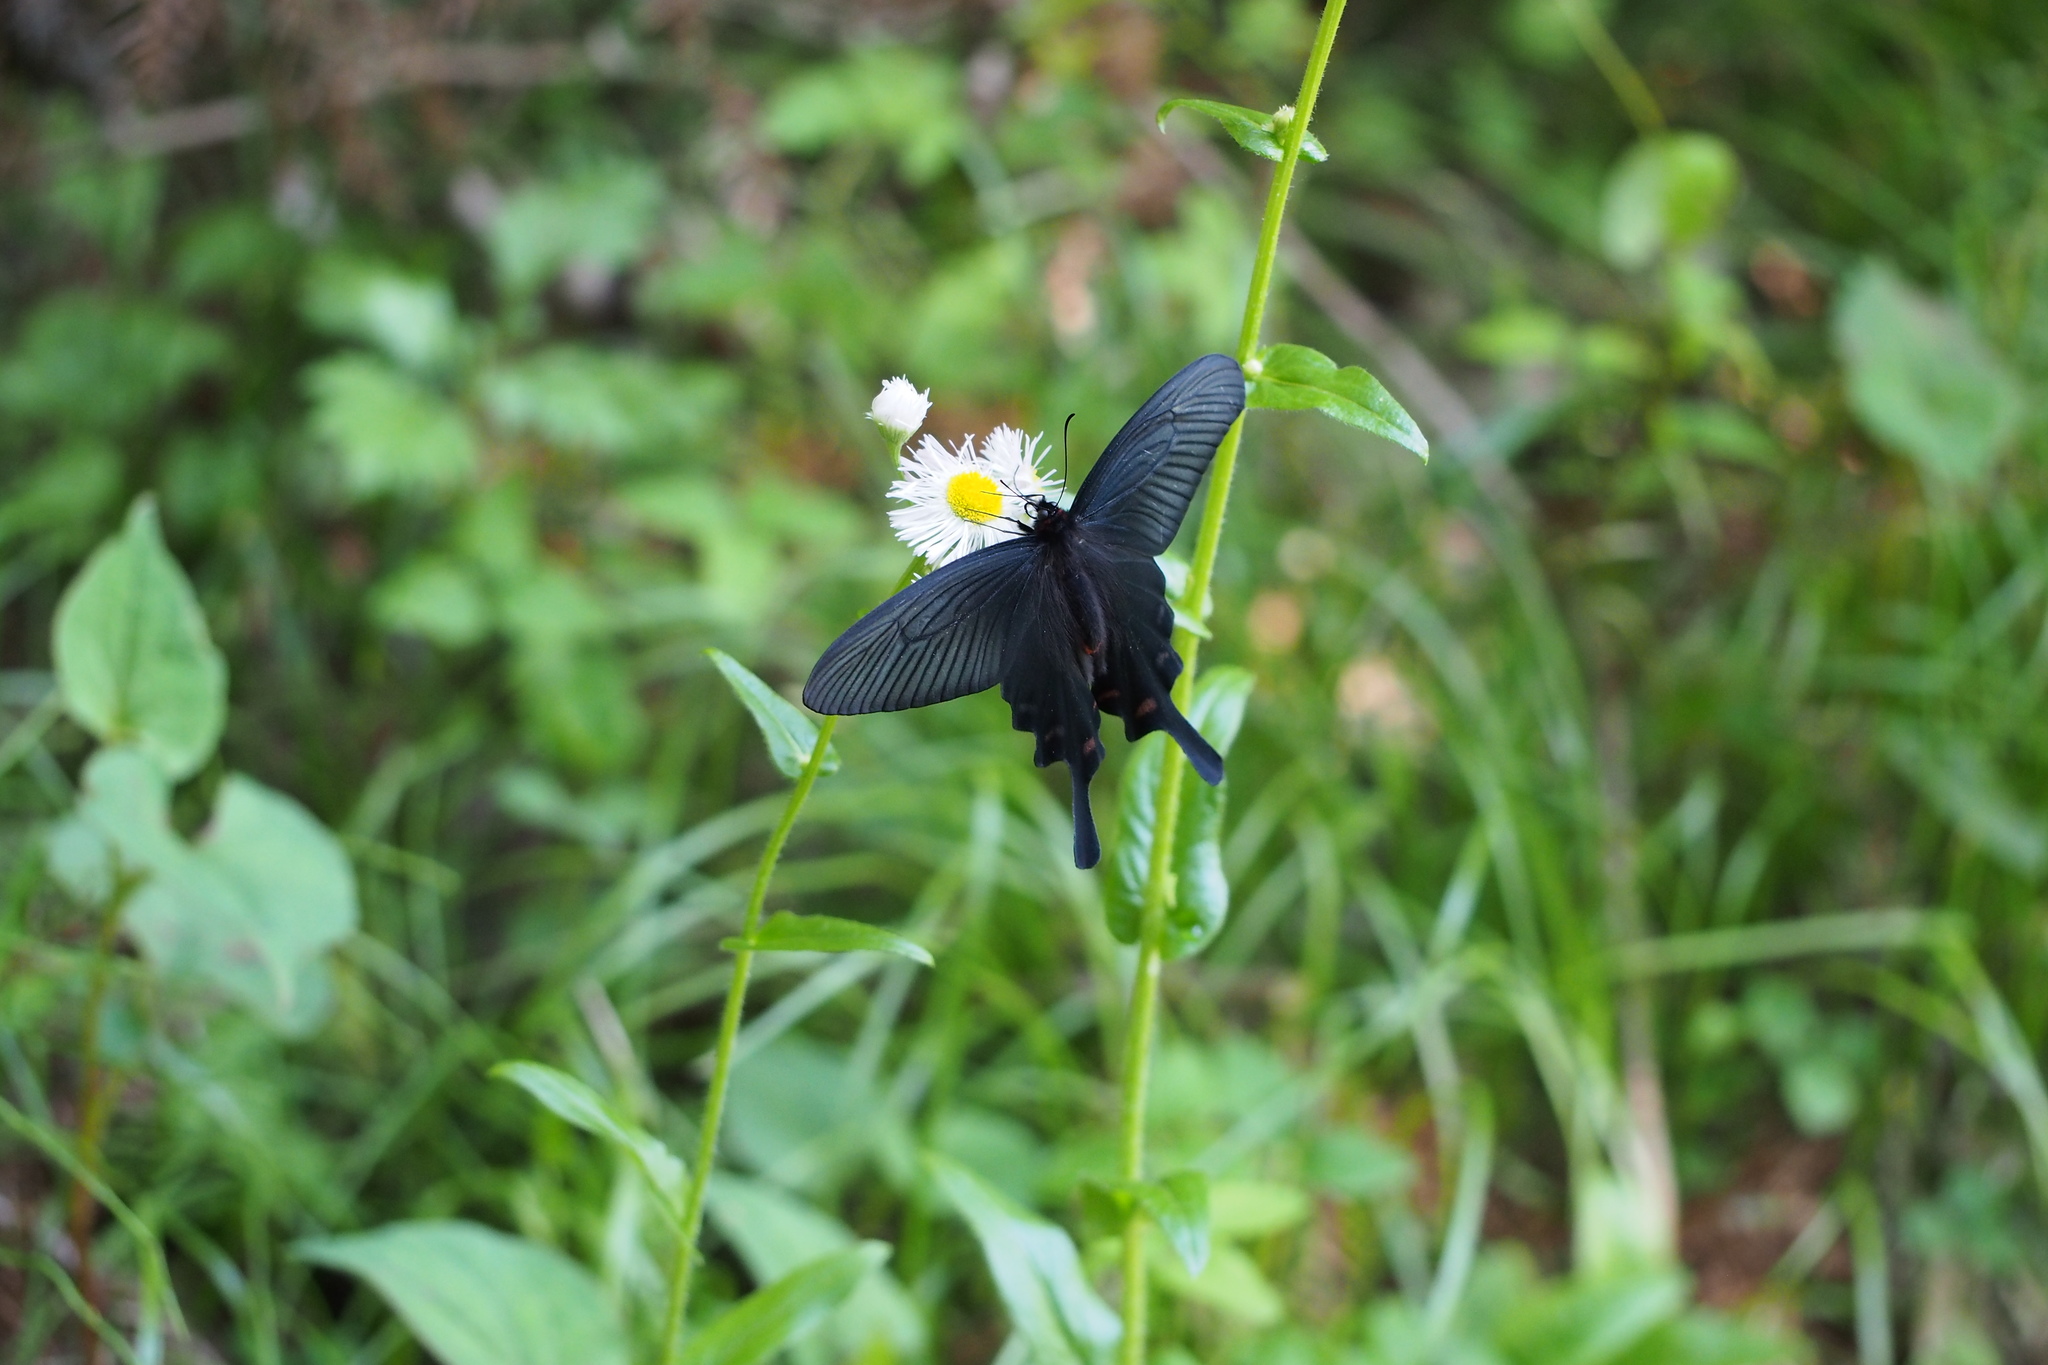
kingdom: Animalia
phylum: Arthropoda
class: Insecta
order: Lepidoptera
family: Papilionidae
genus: Byasa
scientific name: Byasa alcinous
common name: Chinese windmill
